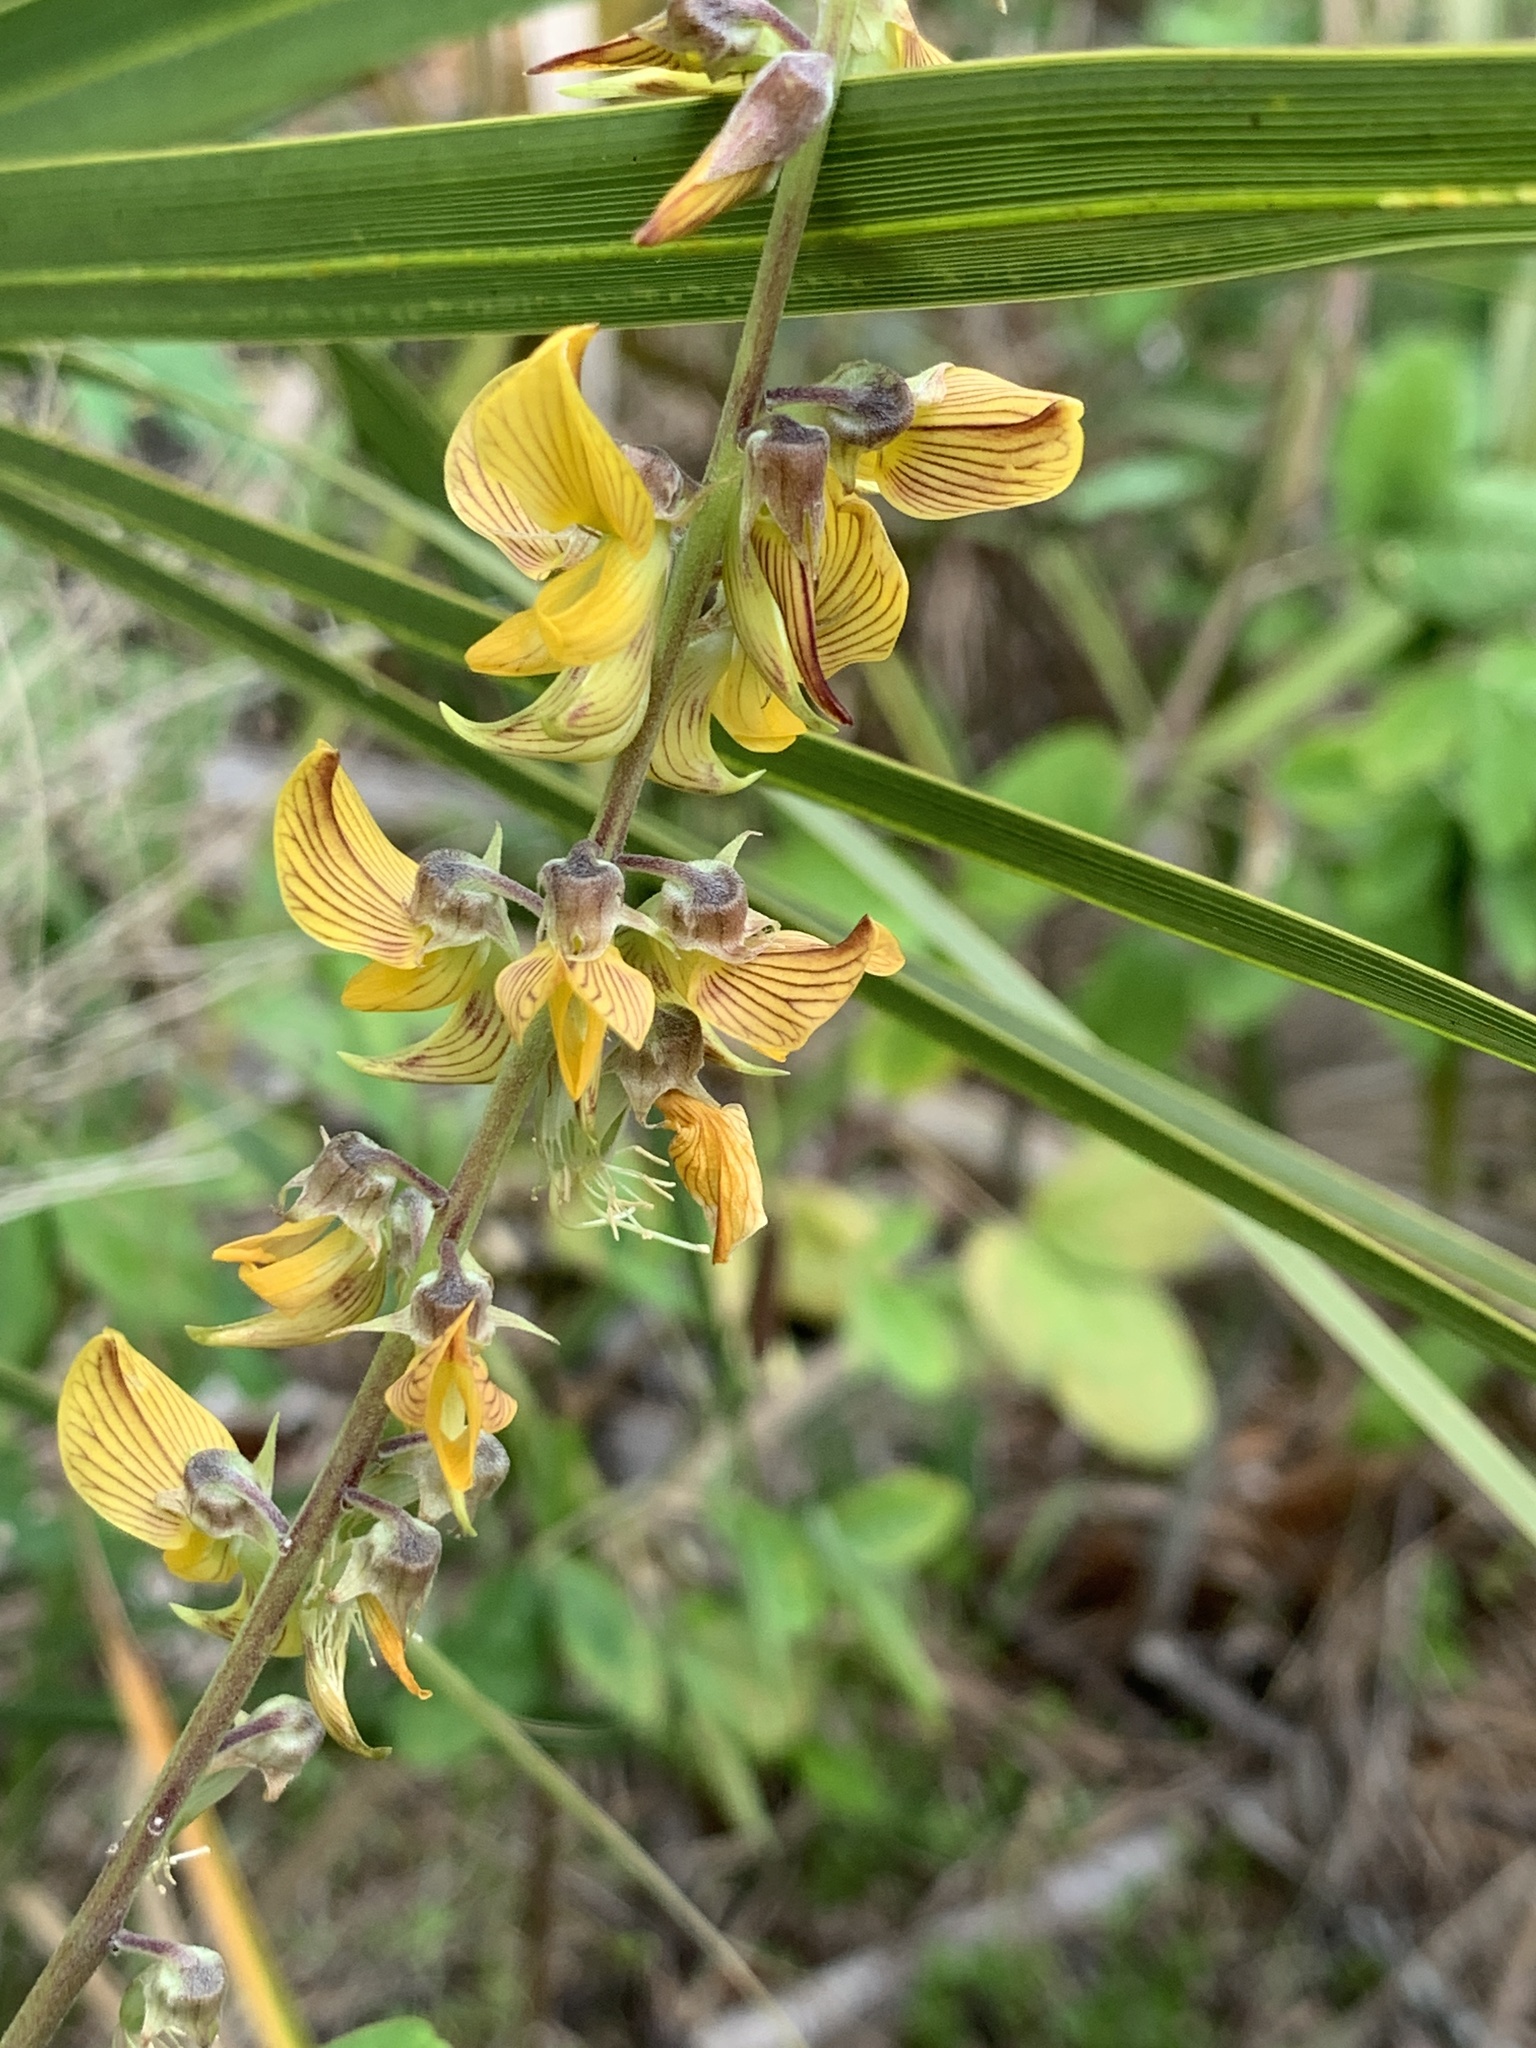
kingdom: Plantae
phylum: Tracheophyta
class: Magnoliopsida
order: Fabales
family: Fabaceae
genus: Crotalaria
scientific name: Crotalaria pallida
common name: Smooth rattlebox
